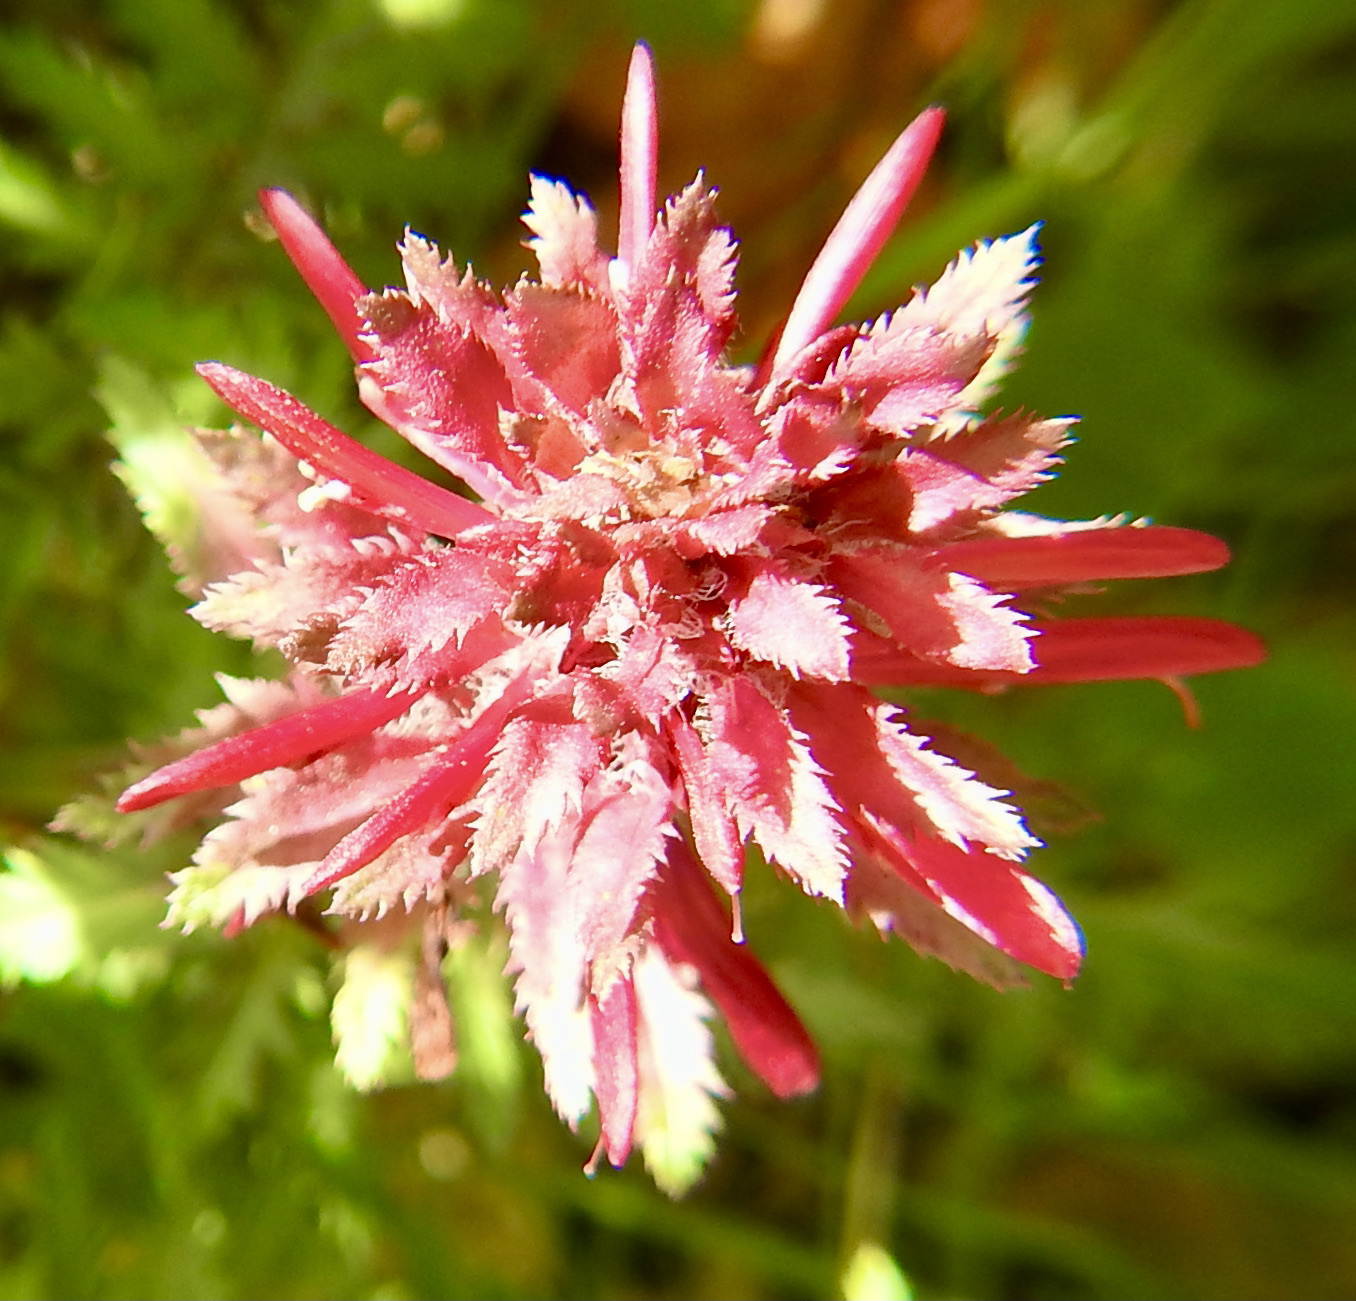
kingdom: Plantae
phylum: Tracheophyta
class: Magnoliopsida
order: Lamiales
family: Orobanchaceae
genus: Pedicularis
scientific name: Pedicularis densiflora
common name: Indian warrior
